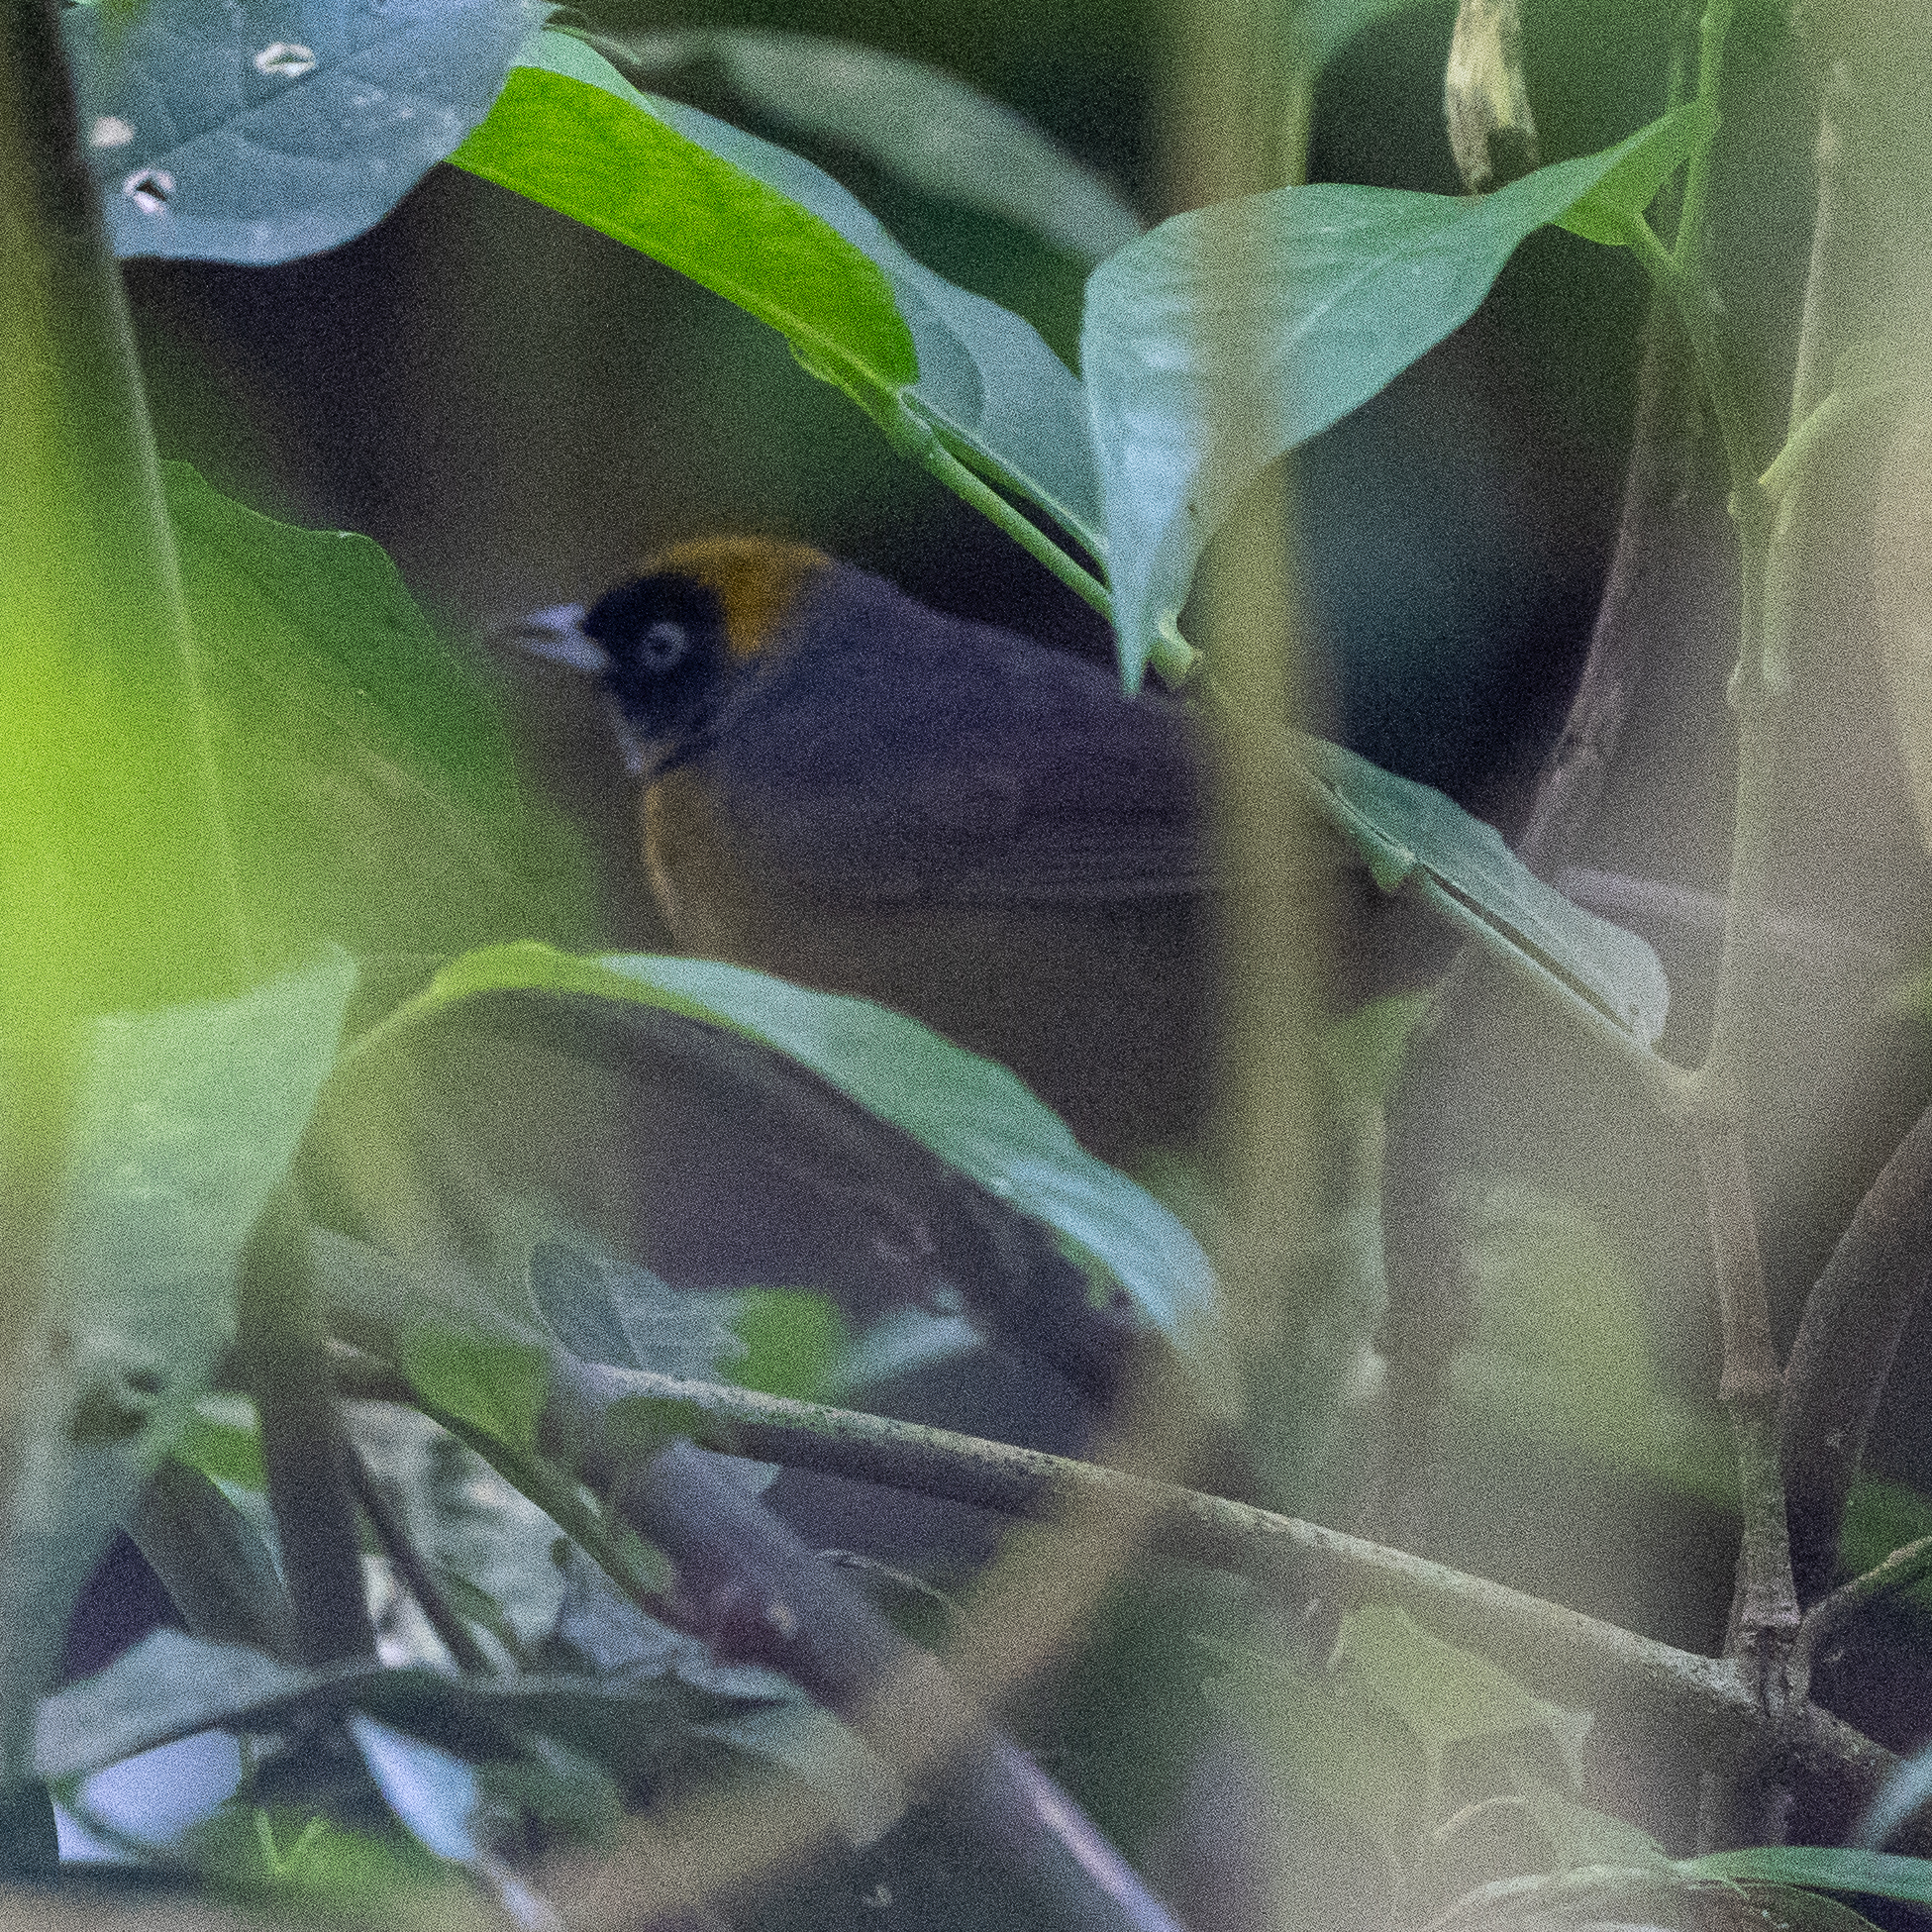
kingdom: Animalia
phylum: Chordata
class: Aves
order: Passeriformes
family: Mitrospingidae
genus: Mitrospingus
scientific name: Mitrospingus cassinii
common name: Dusky-faced tanager
